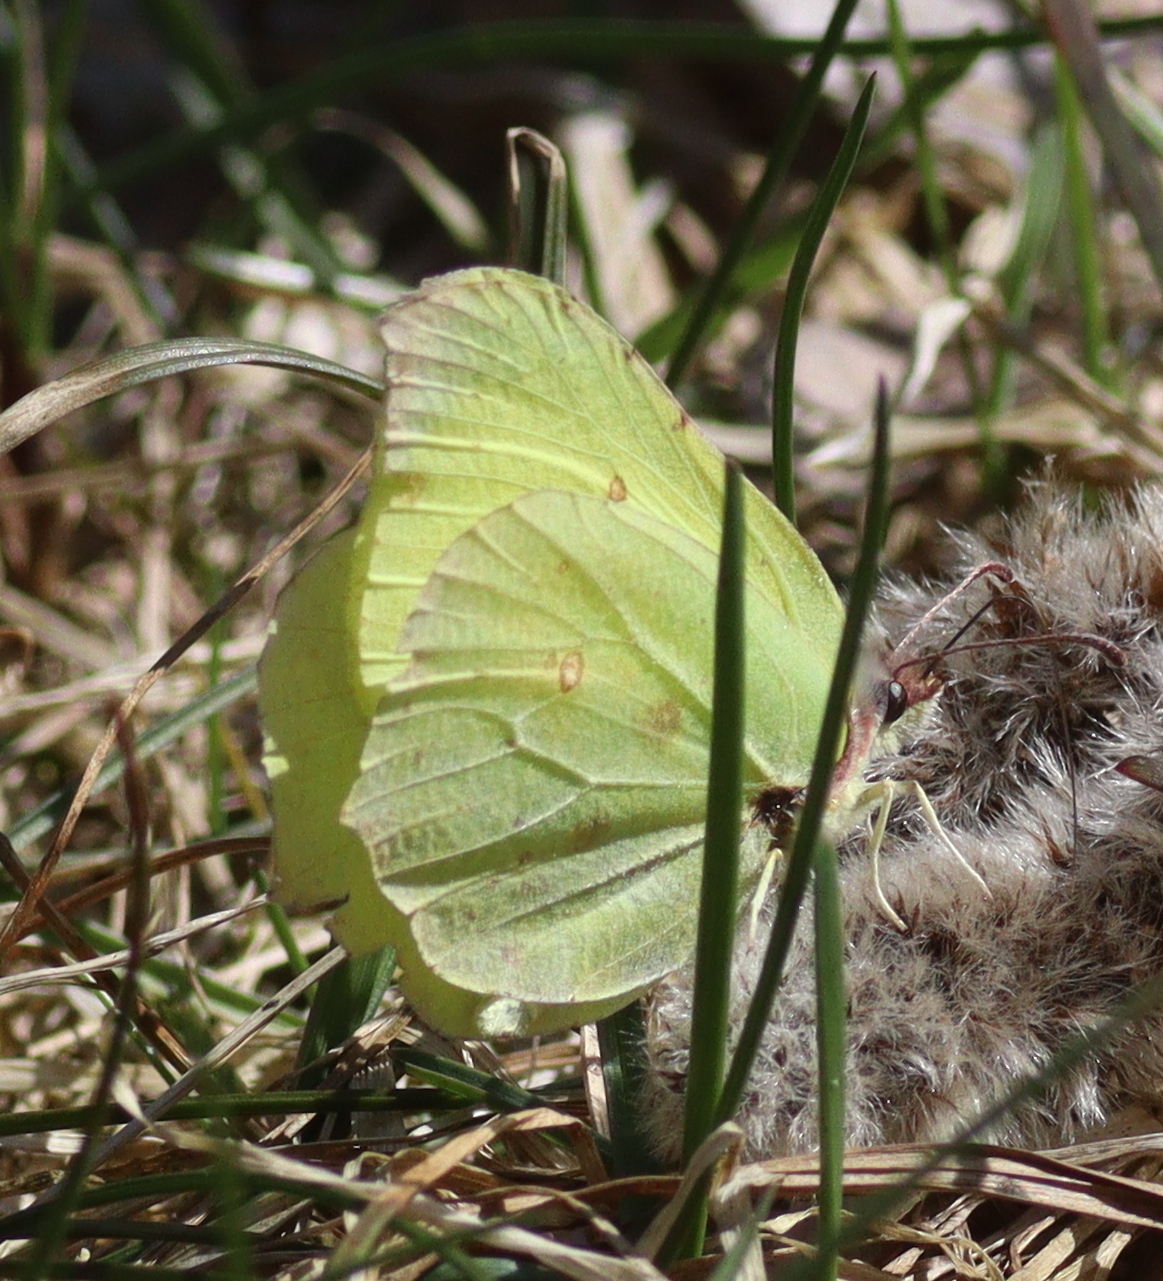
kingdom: Animalia
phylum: Arthropoda
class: Insecta
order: Lepidoptera
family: Pieridae
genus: Gonepteryx
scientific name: Gonepteryx rhamni
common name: Brimstone
